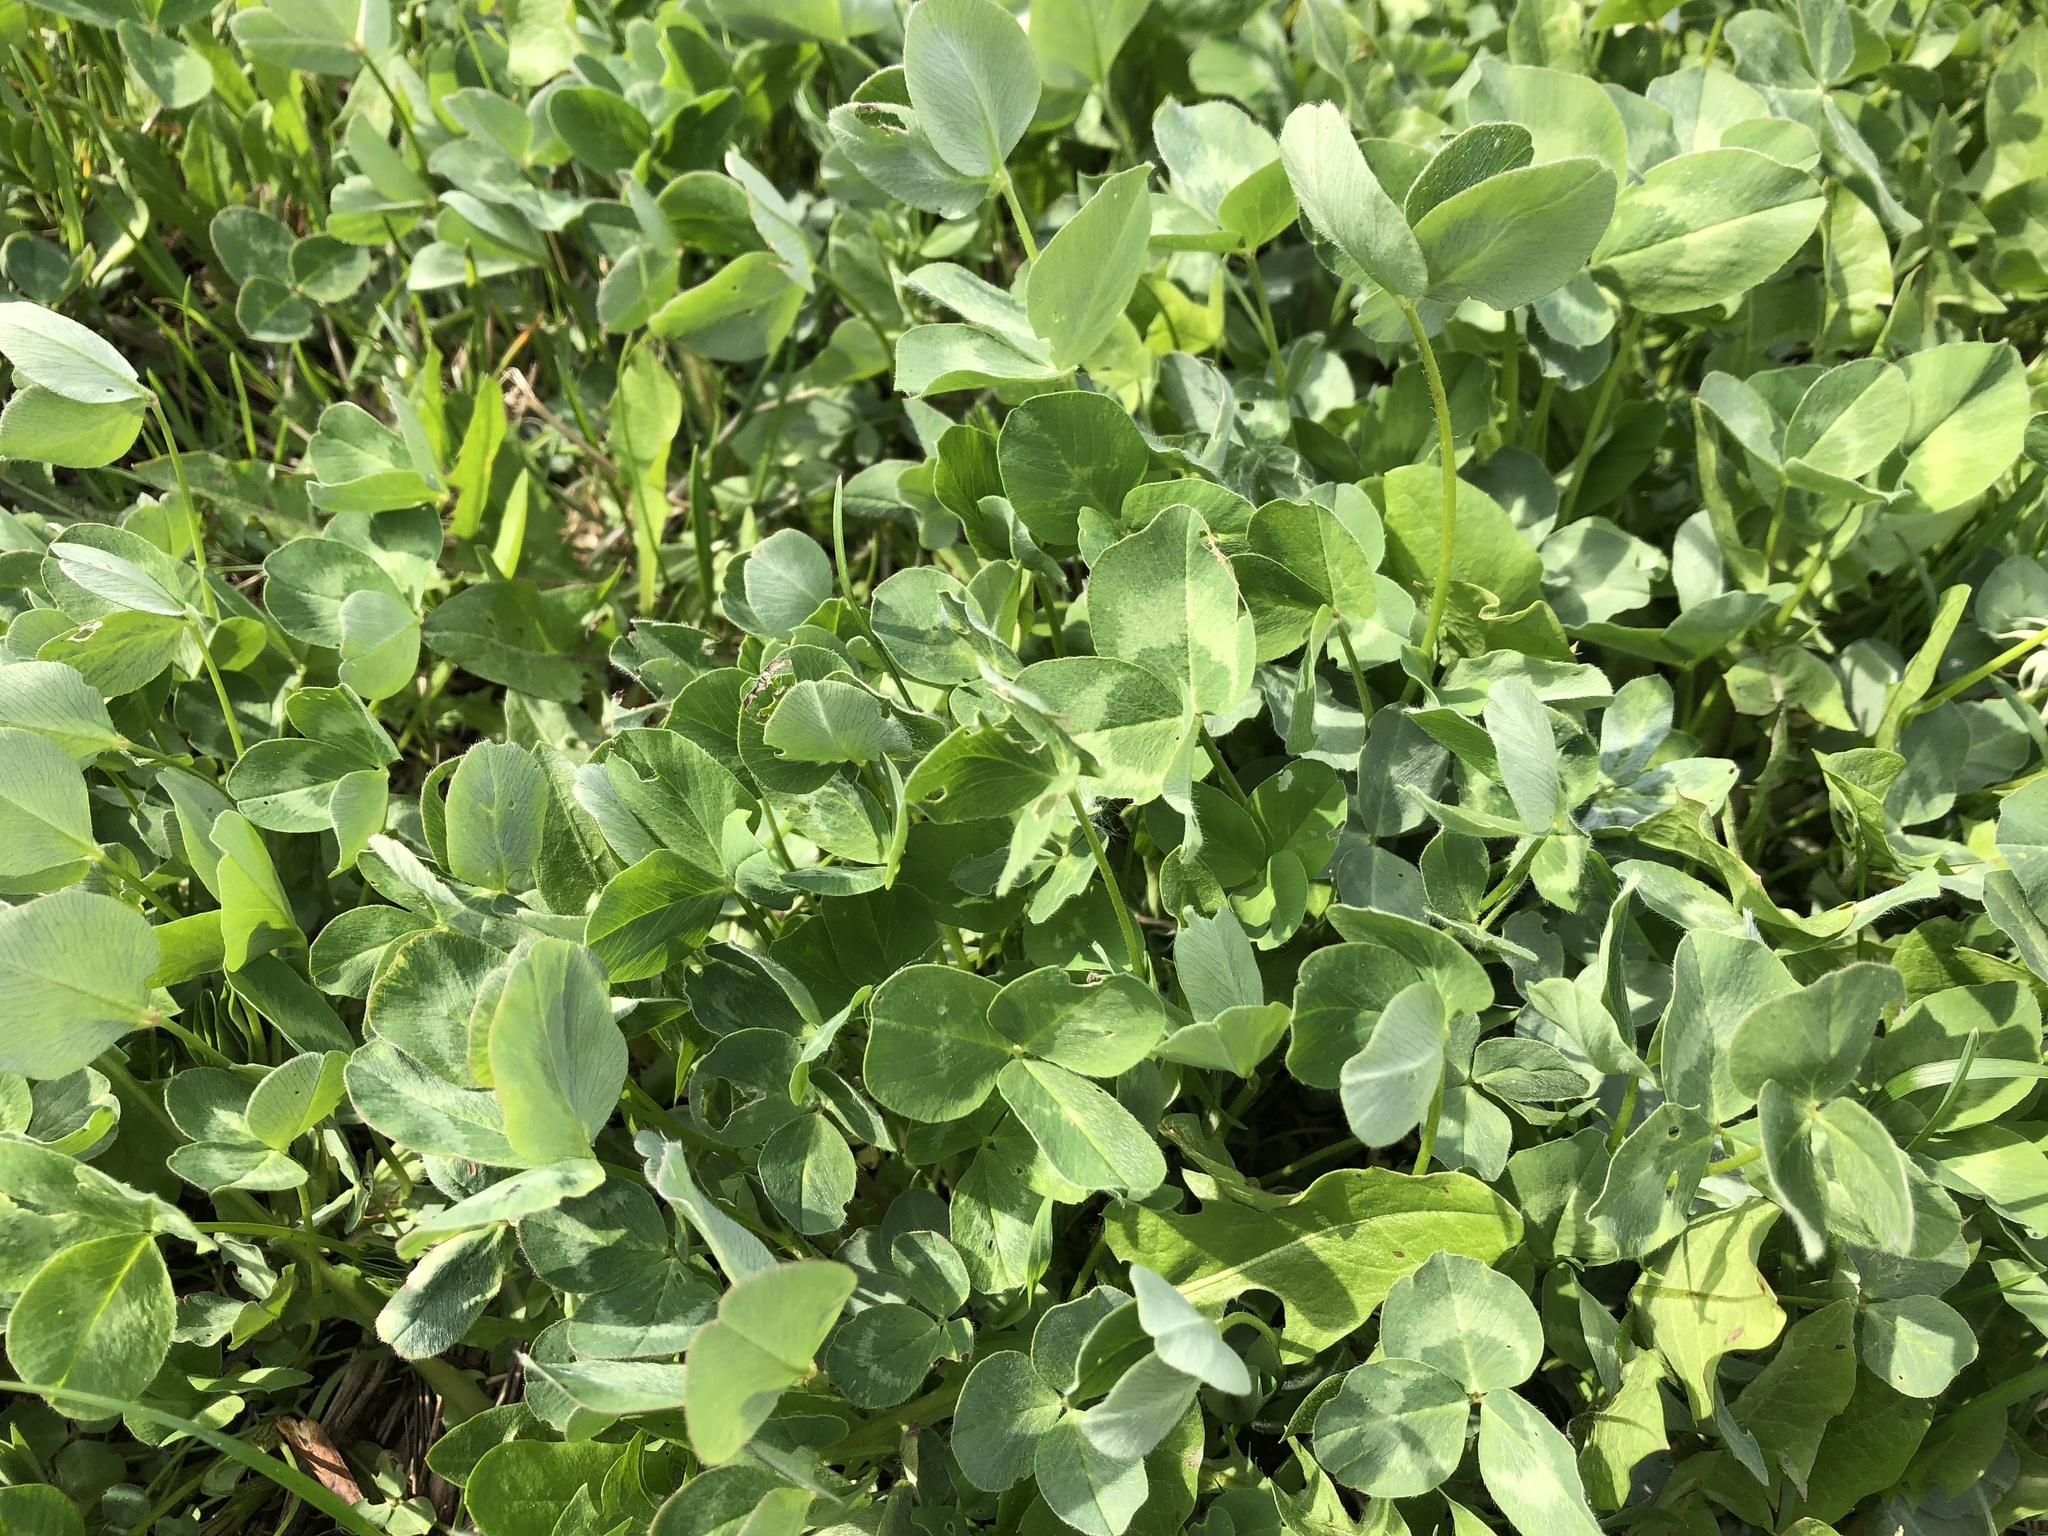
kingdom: Plantae
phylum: Tracheophyta
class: Magnoliopsida
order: Fabales
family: Fabaceae
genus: Trifolium
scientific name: Trifolium pratense
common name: Red clover
